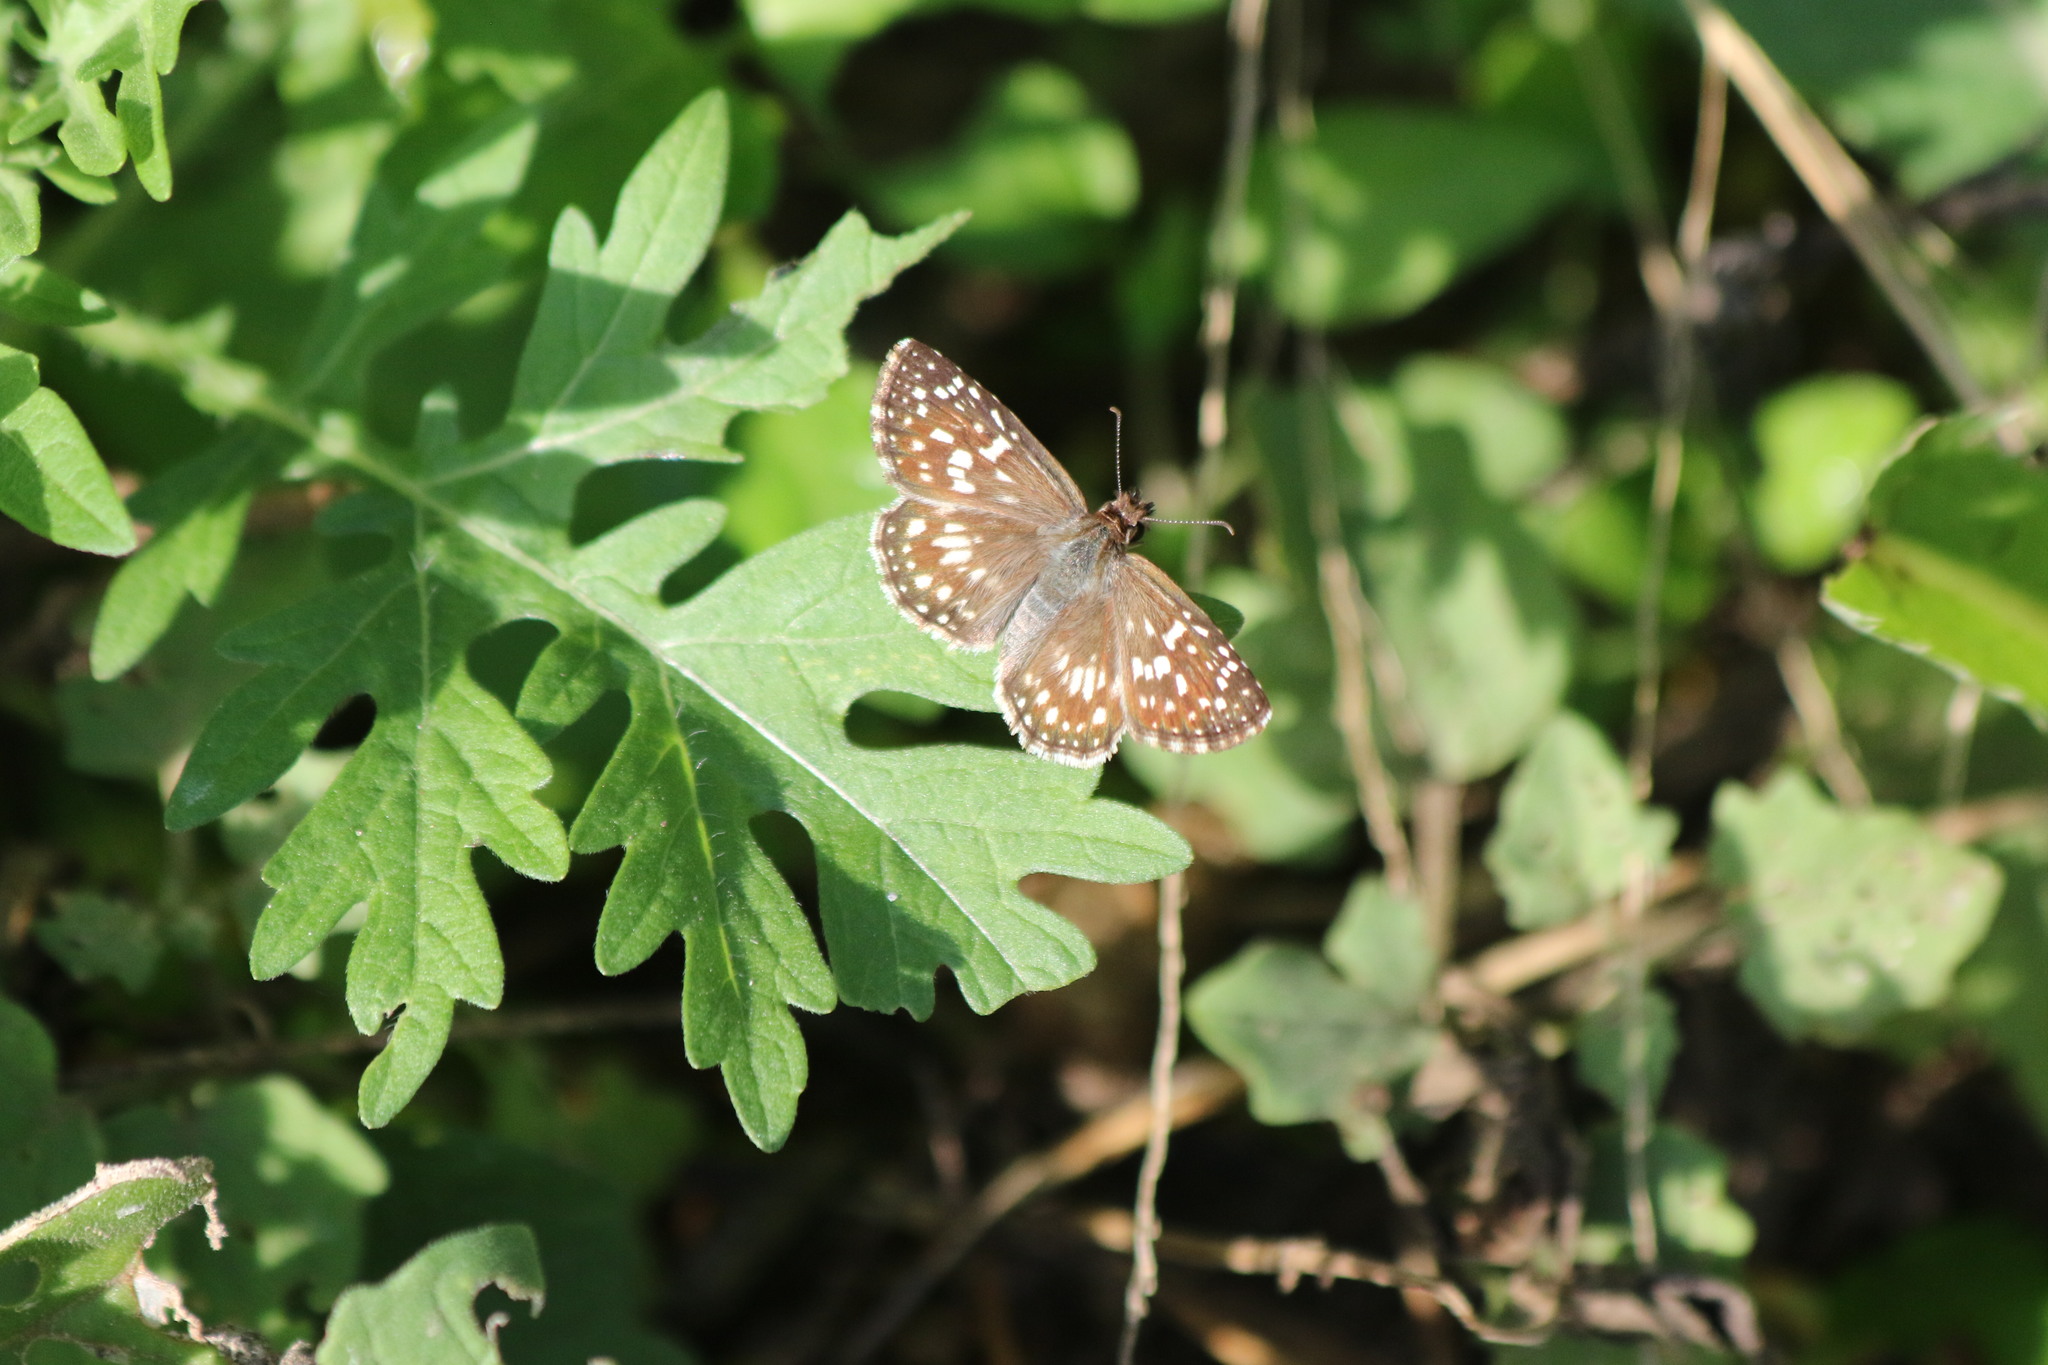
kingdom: Animalia
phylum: Arthropoda
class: Insecta
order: Lepidoptera
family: Hesperiidae
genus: Pyrgus
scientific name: Pyrgus oileus
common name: Tropical checkered-skipper
